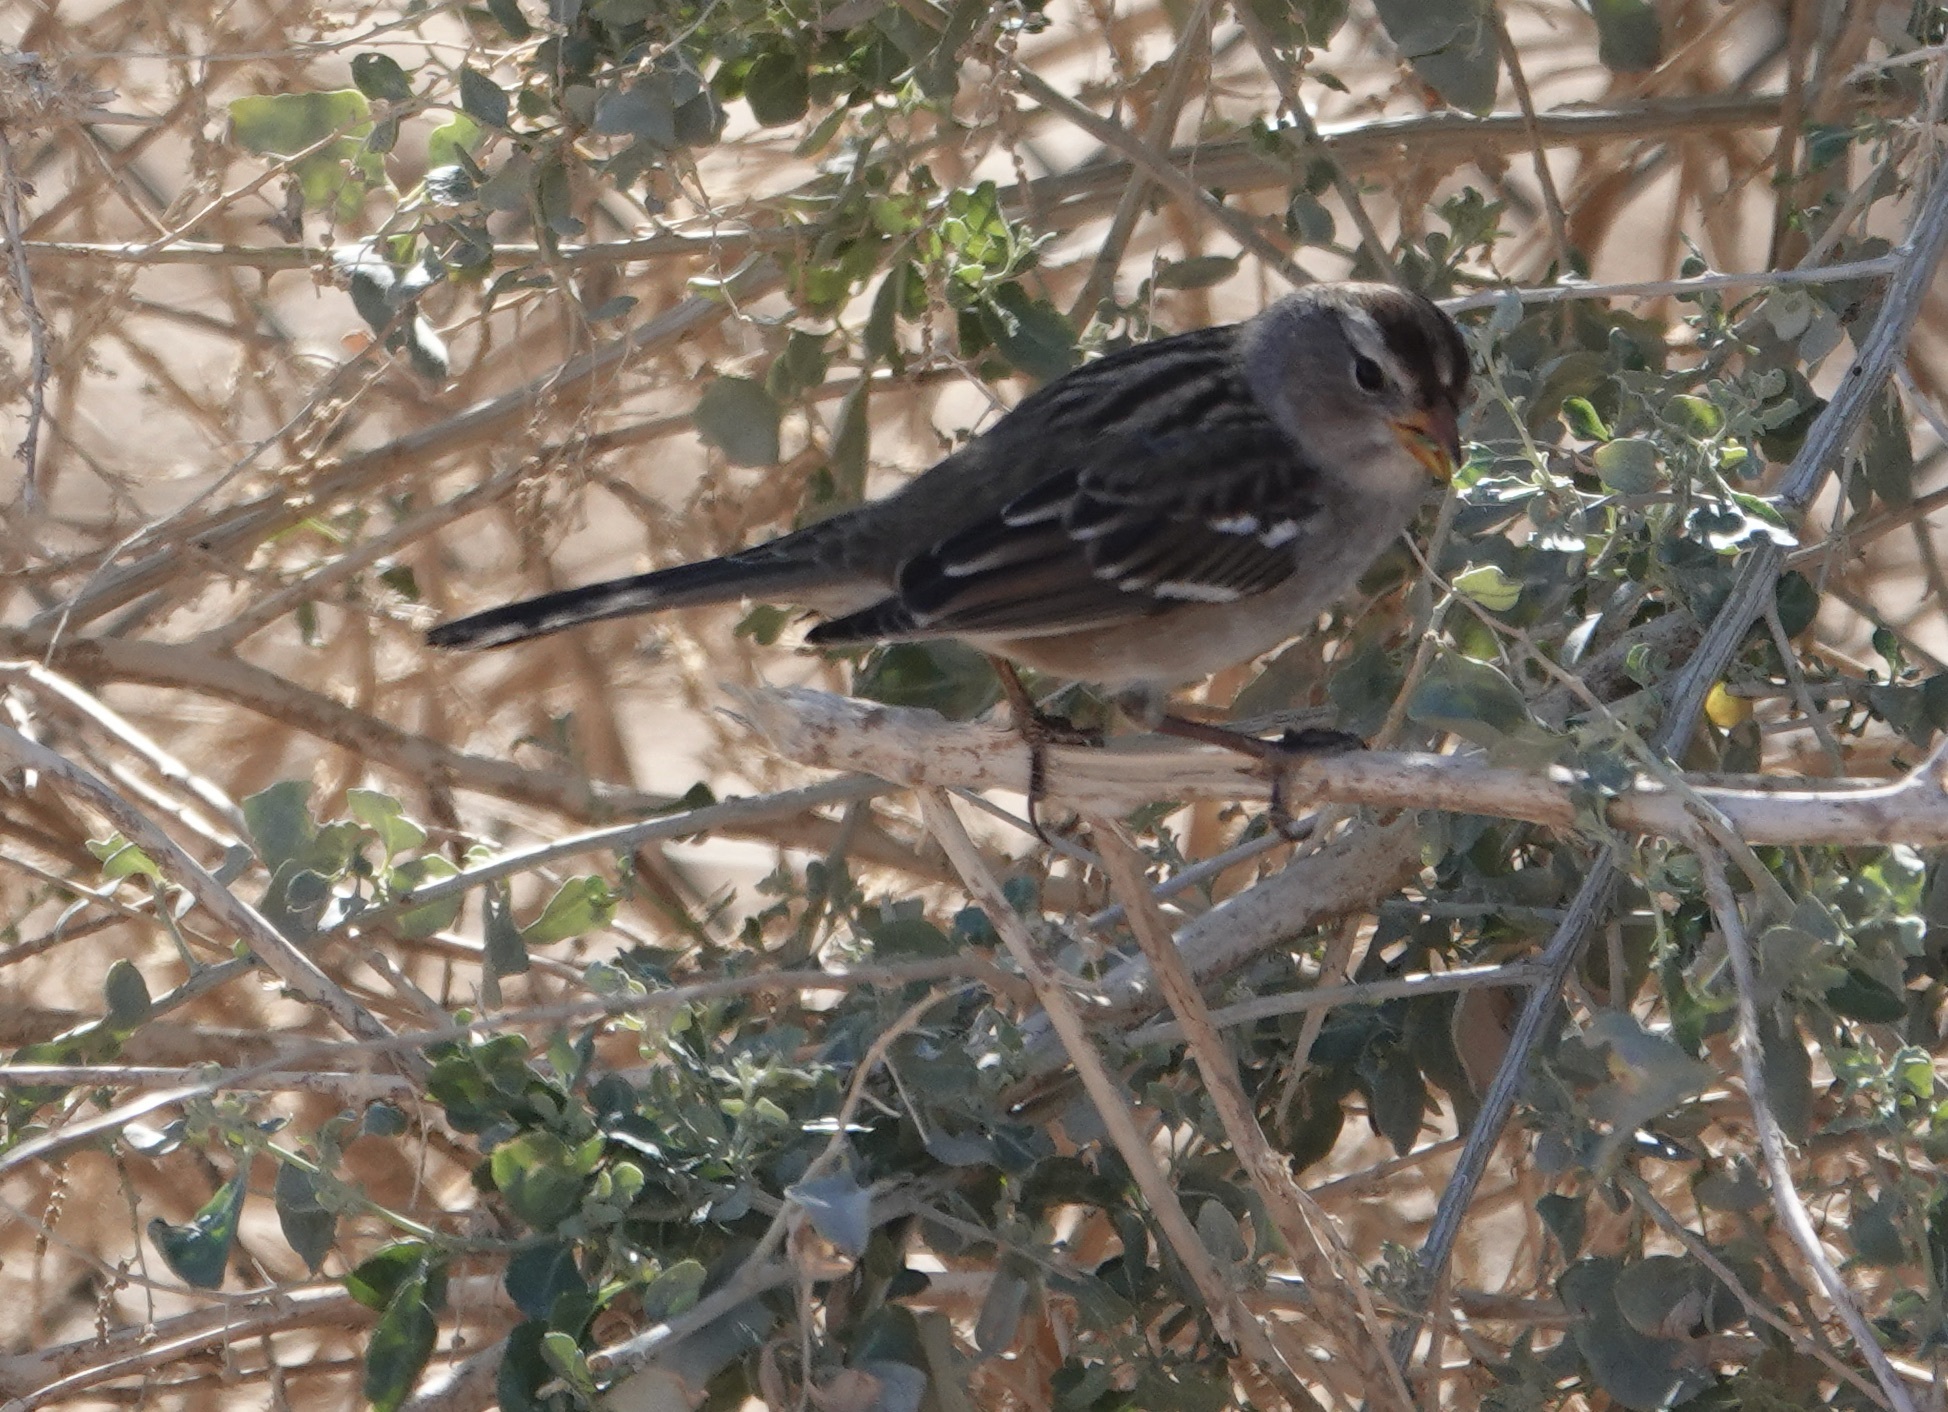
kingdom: Animalia
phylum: Chordata
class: Aves
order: Passeriformes
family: Passerellidae
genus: Zonotrichia
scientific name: Zonotrichia leucophrys
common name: White-crowned sparrow
